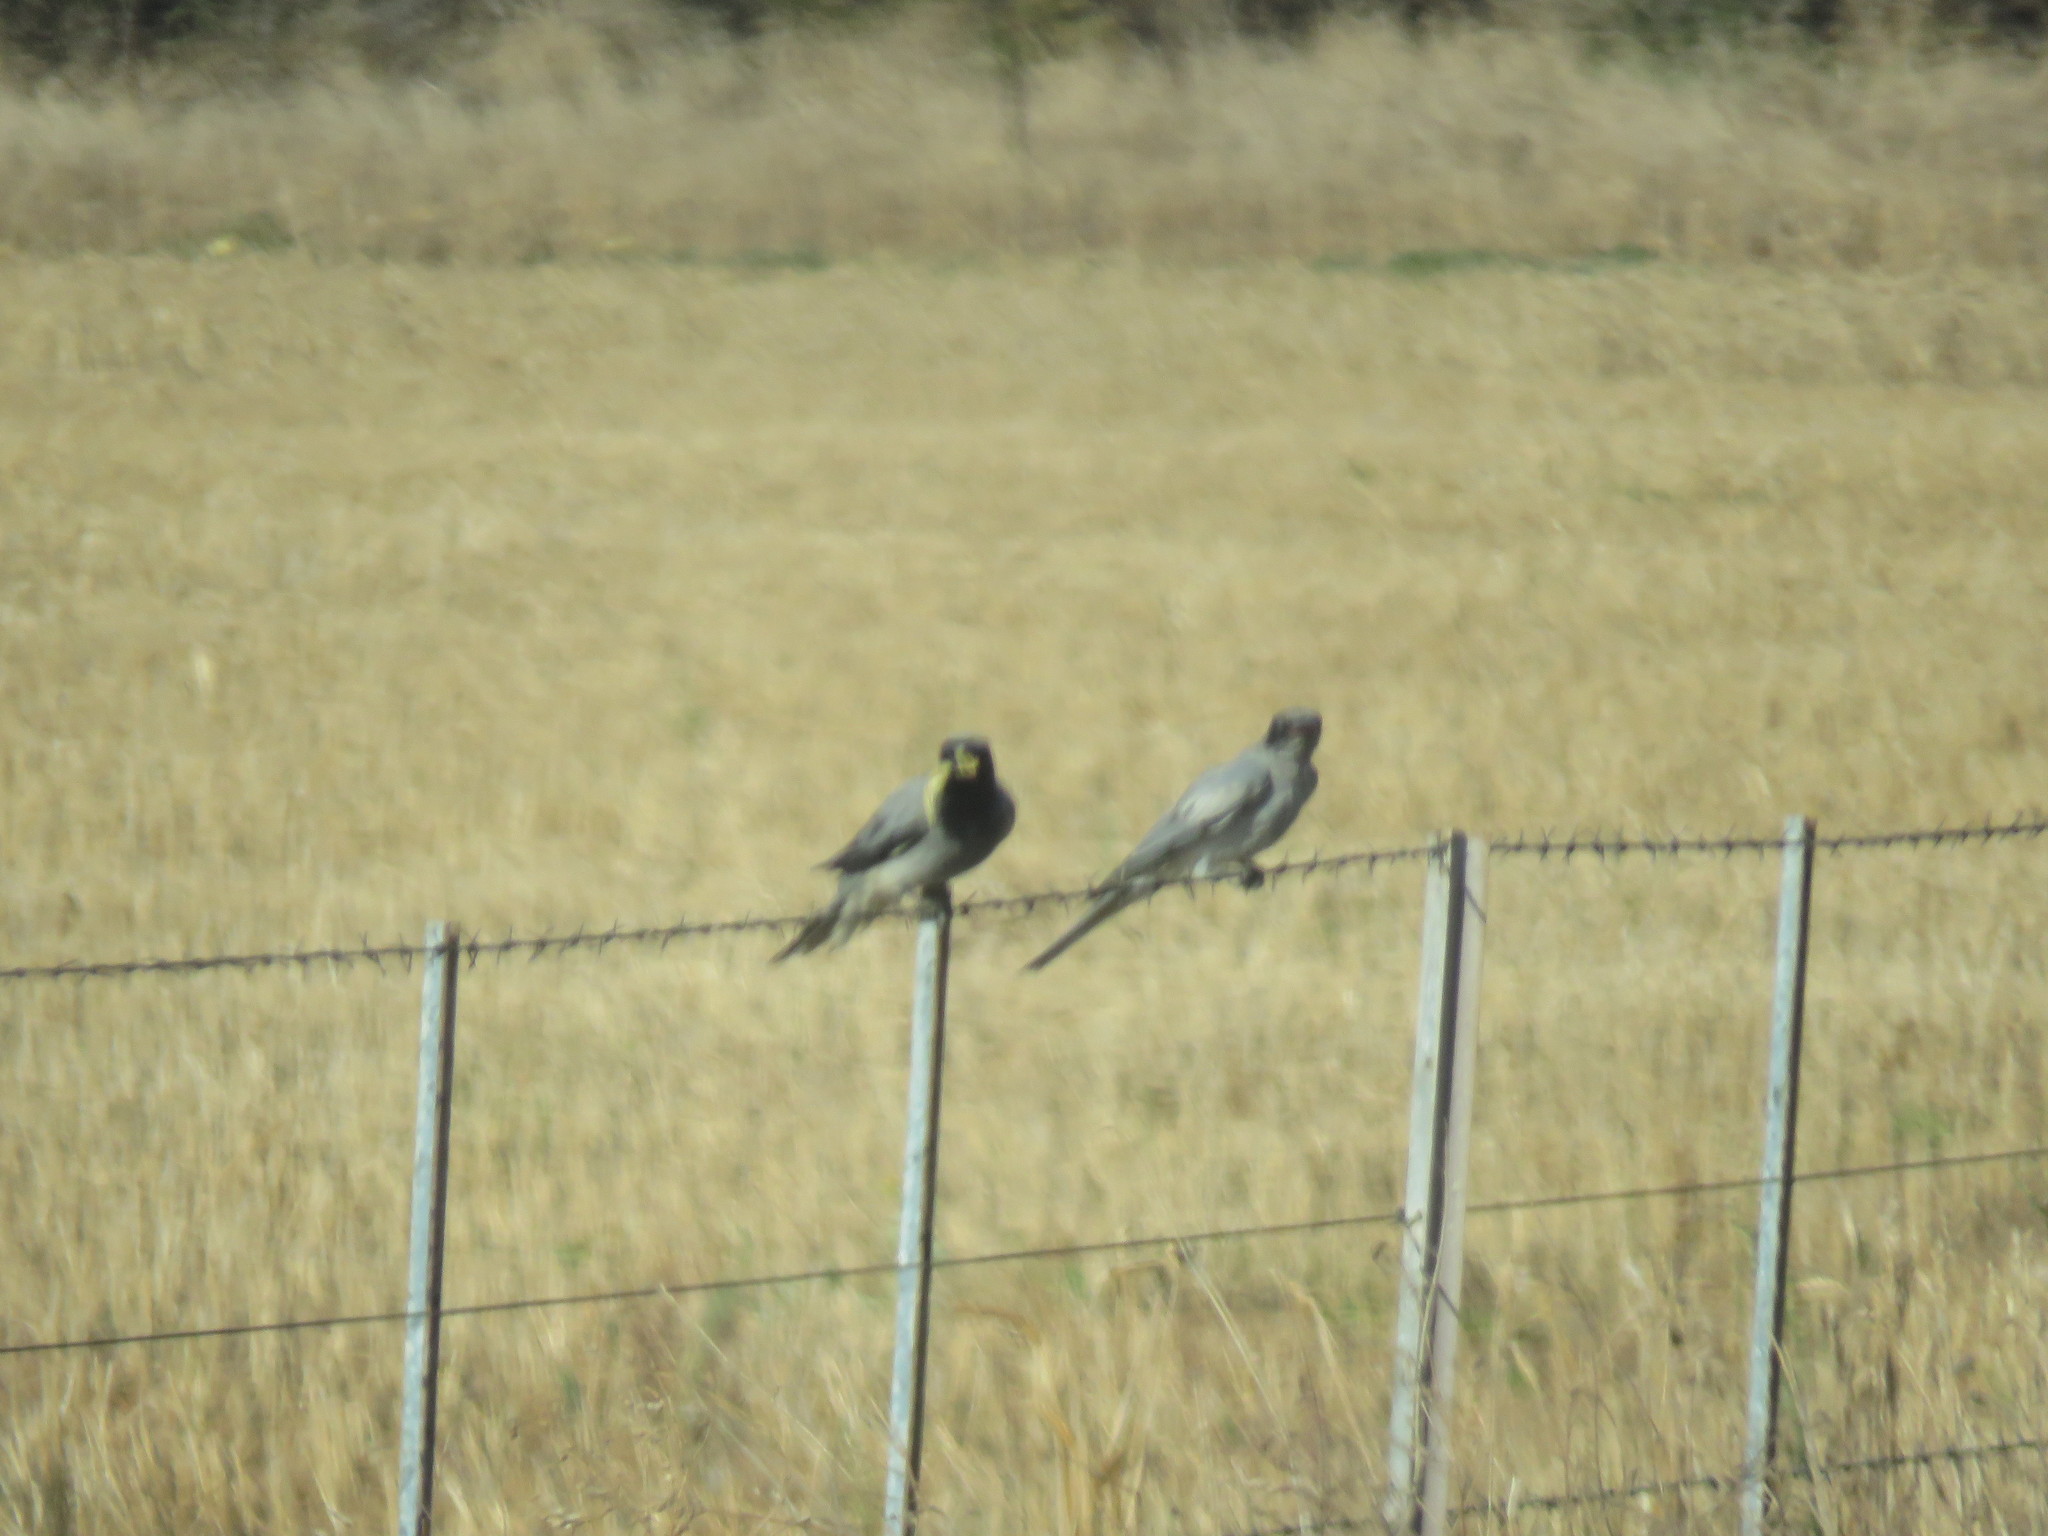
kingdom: Animalia
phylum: Chordata
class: Aves
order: Passeriformes
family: Campephagidae
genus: Coracina
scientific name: Coracina novaehollandiae
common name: Black-faced cuckooshrike
